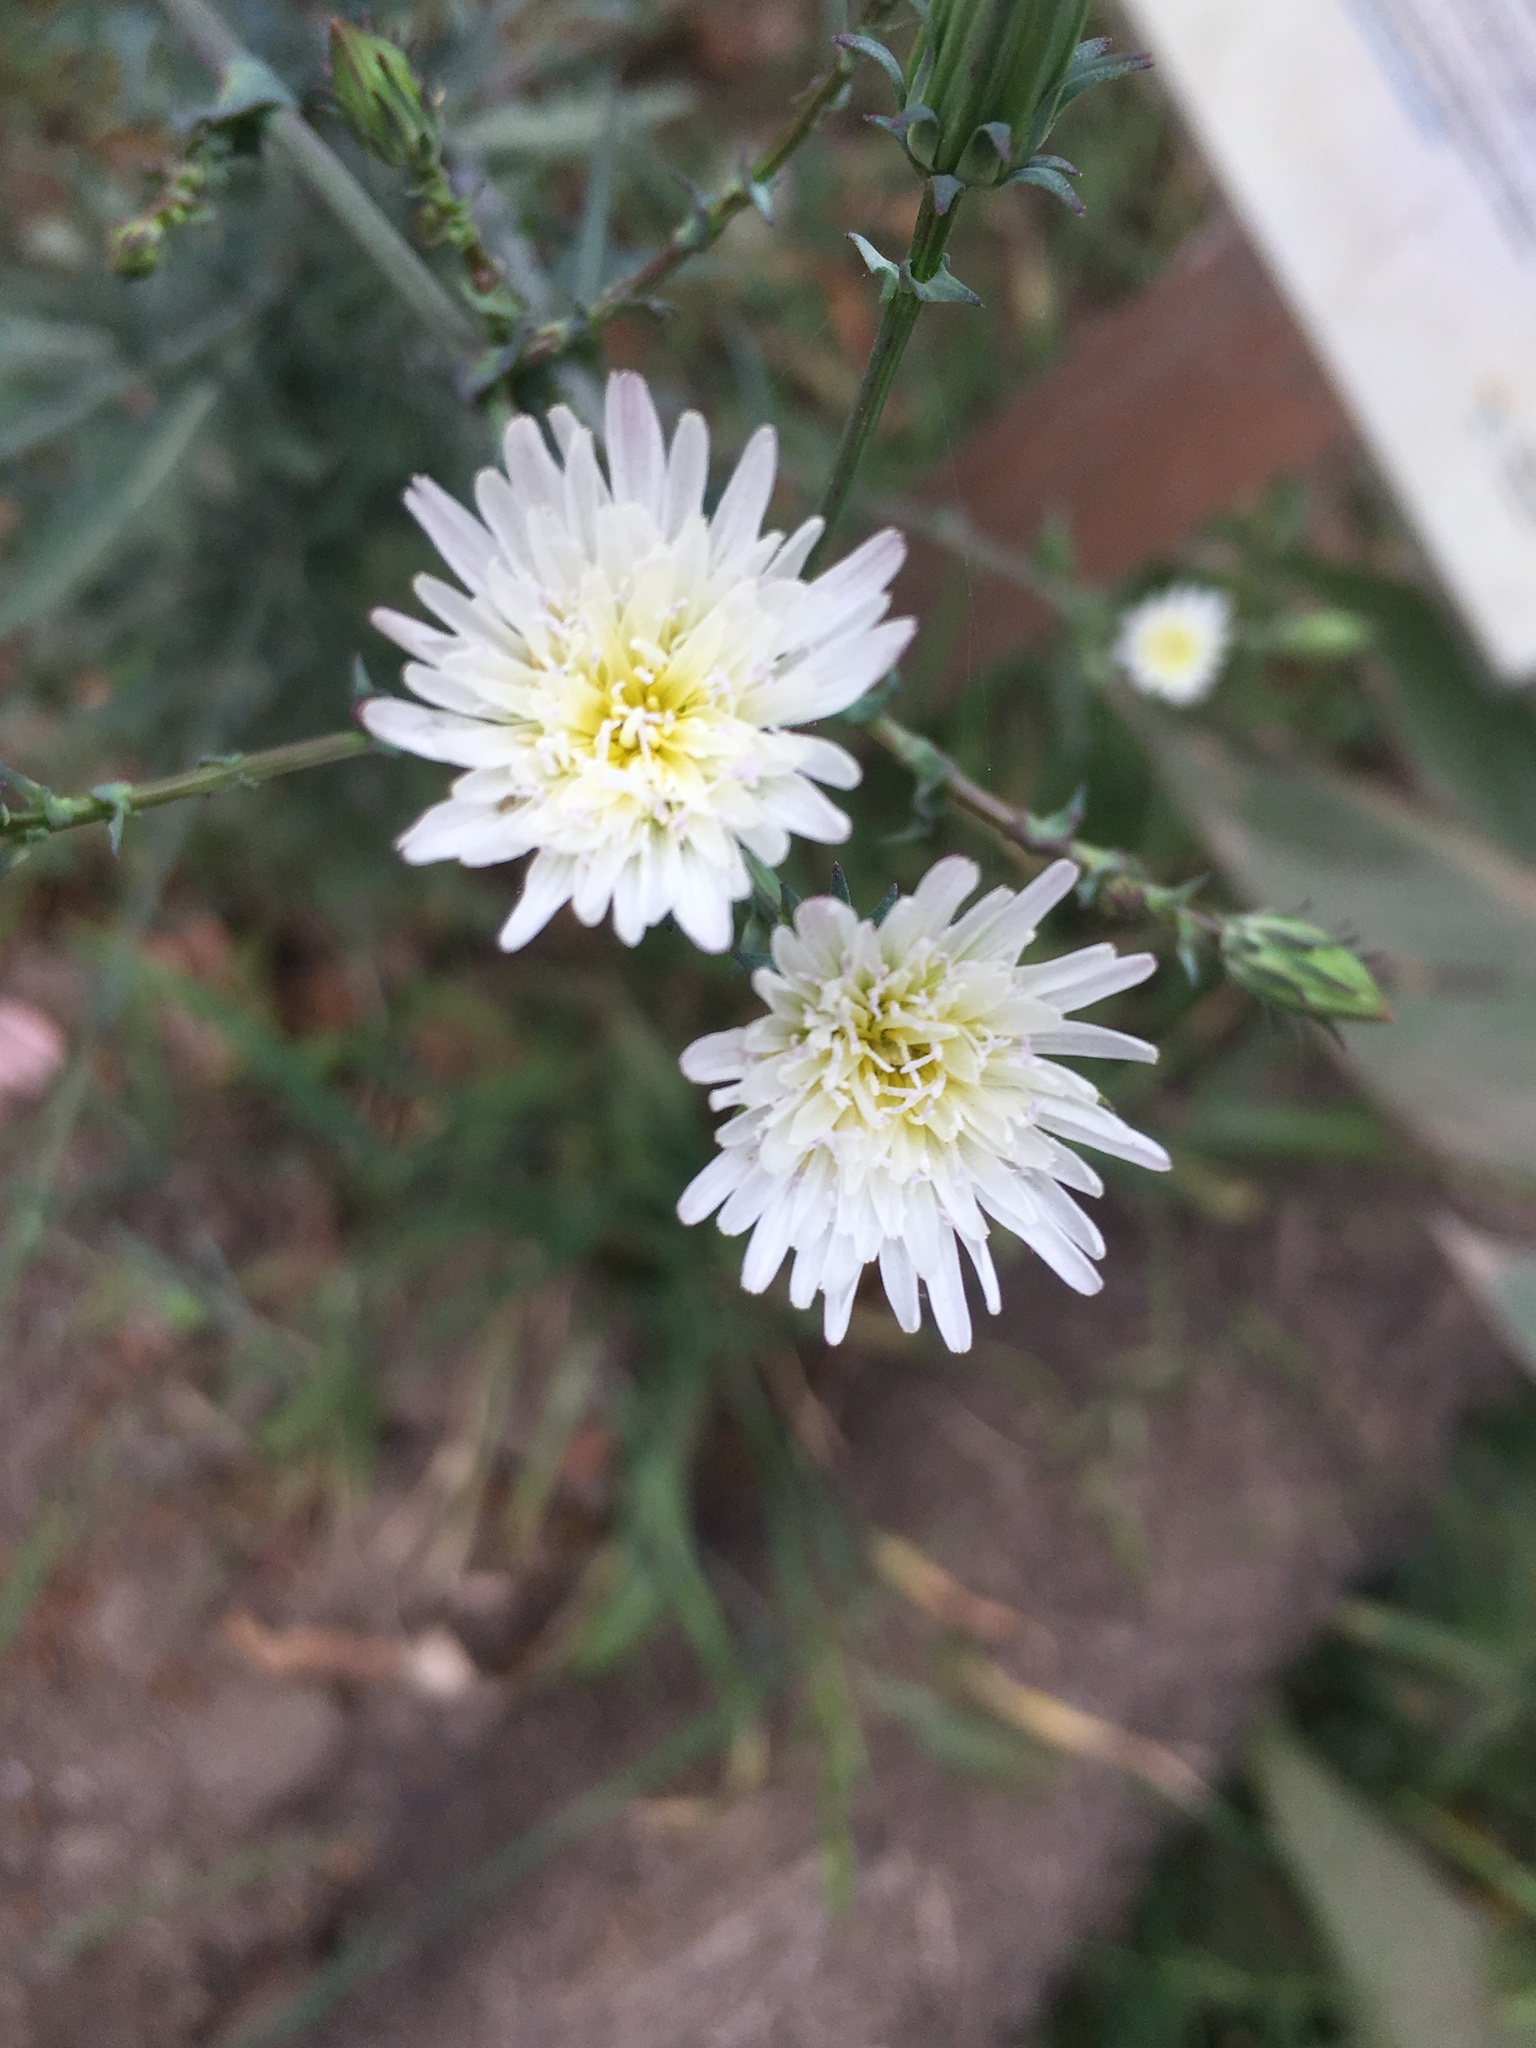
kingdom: Plantae
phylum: Tracheophyta
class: Magnoliopsida
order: Asterales
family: Asteraceae
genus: Rafinesquia
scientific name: Rafinesquia californica
